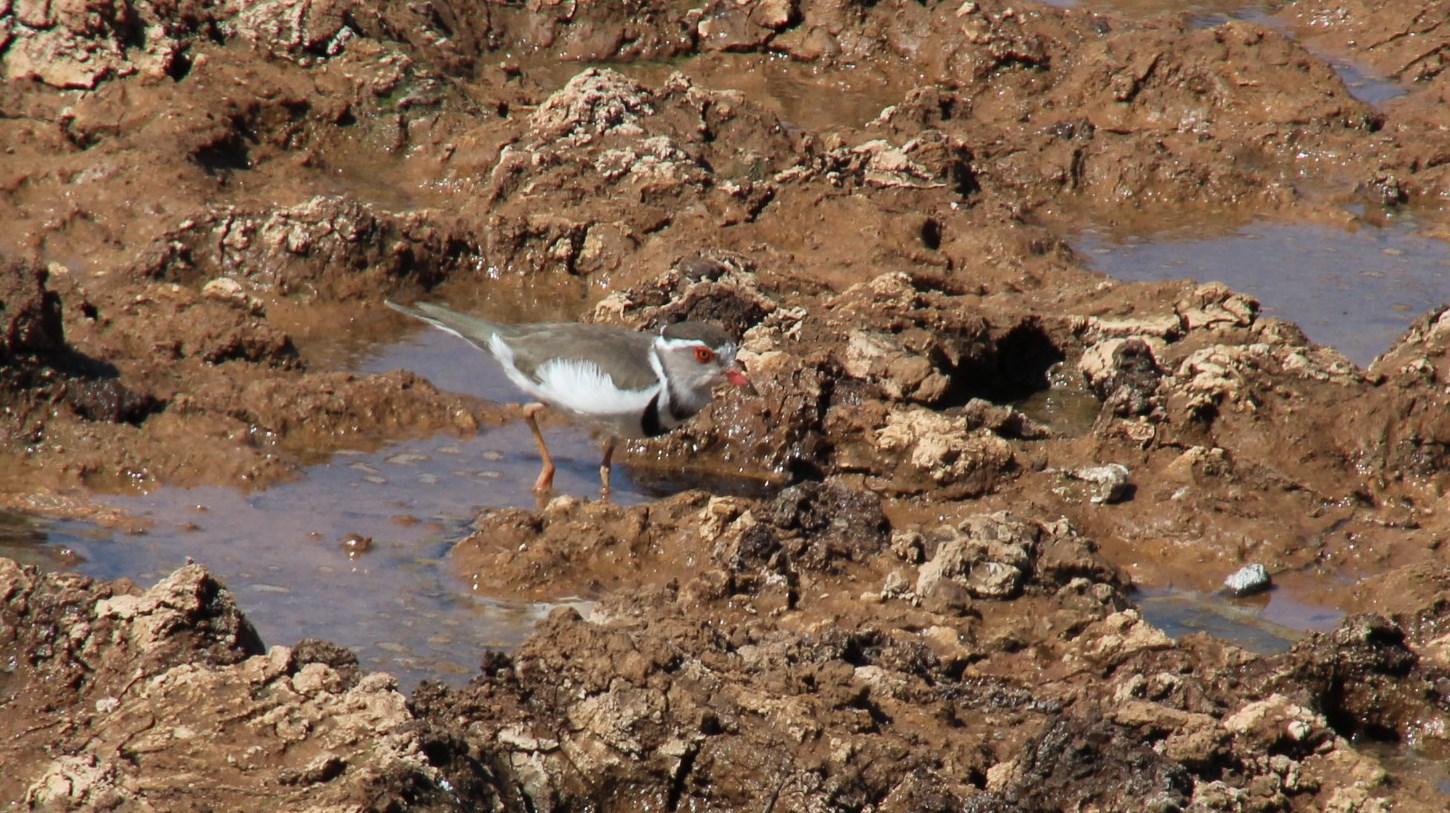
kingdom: Animalia
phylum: Chordata
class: Aves
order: Charadriiformes
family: Charadriidae
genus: Charadrius
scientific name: Charadrius tricollaris
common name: Three-banded plover
